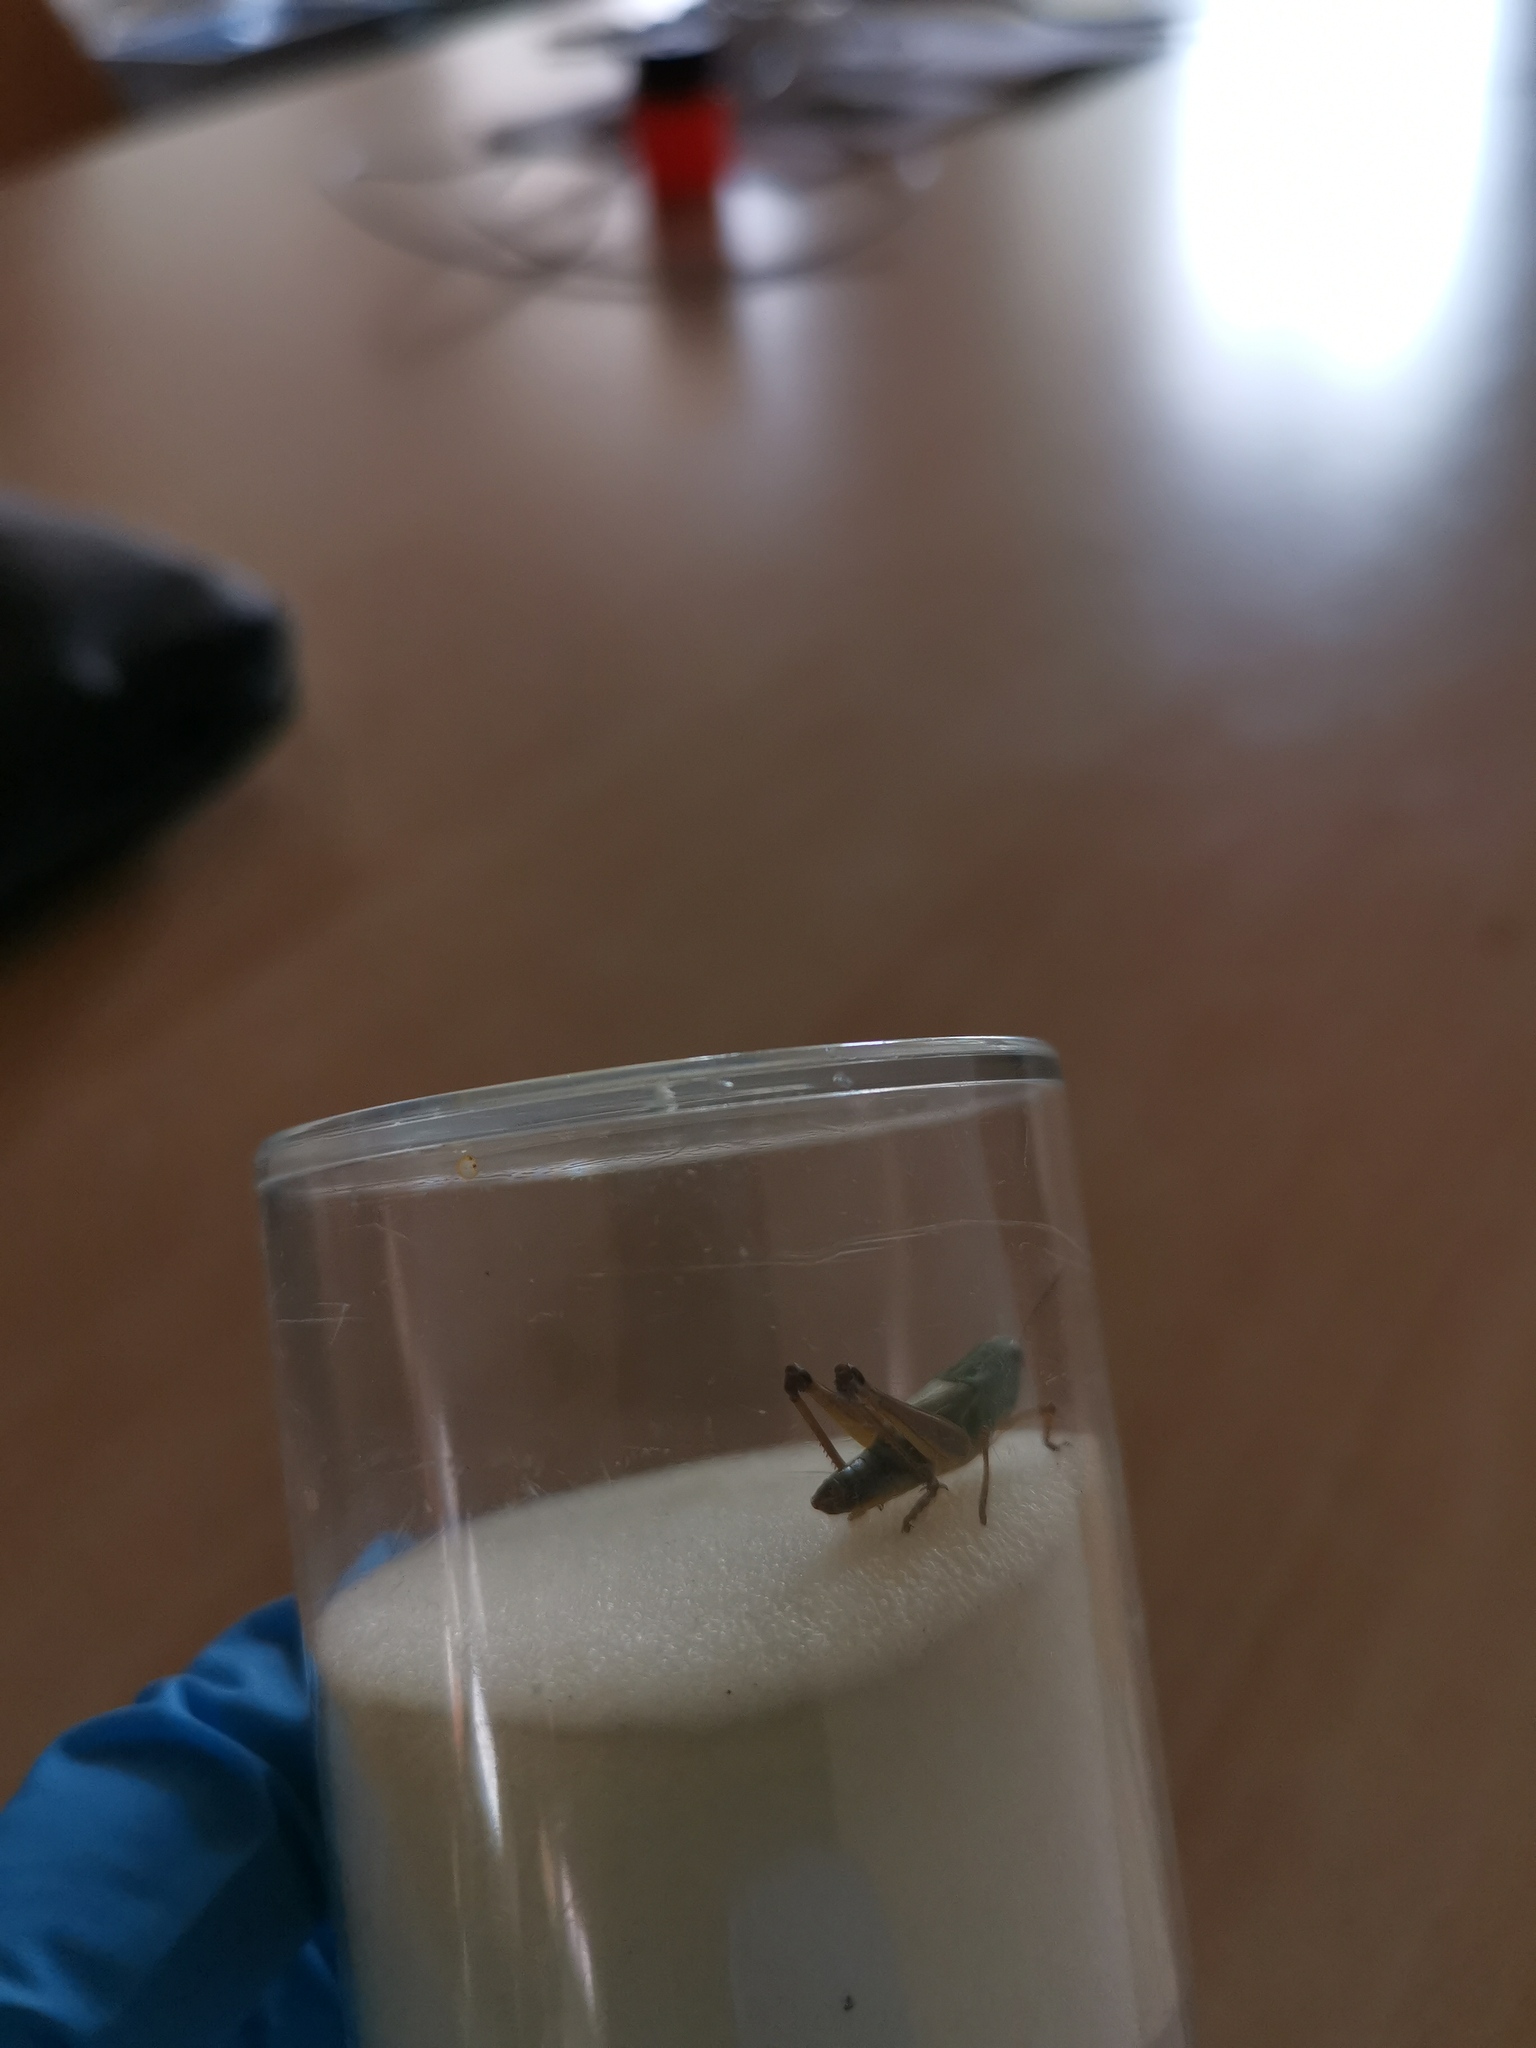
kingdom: Animalia
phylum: Arthropoda
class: Insecta
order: Orthoptera
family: Acrididae
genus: Pseudochorthippus
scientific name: Pseudochorthippus parallelus
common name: Meadow grasshopper
